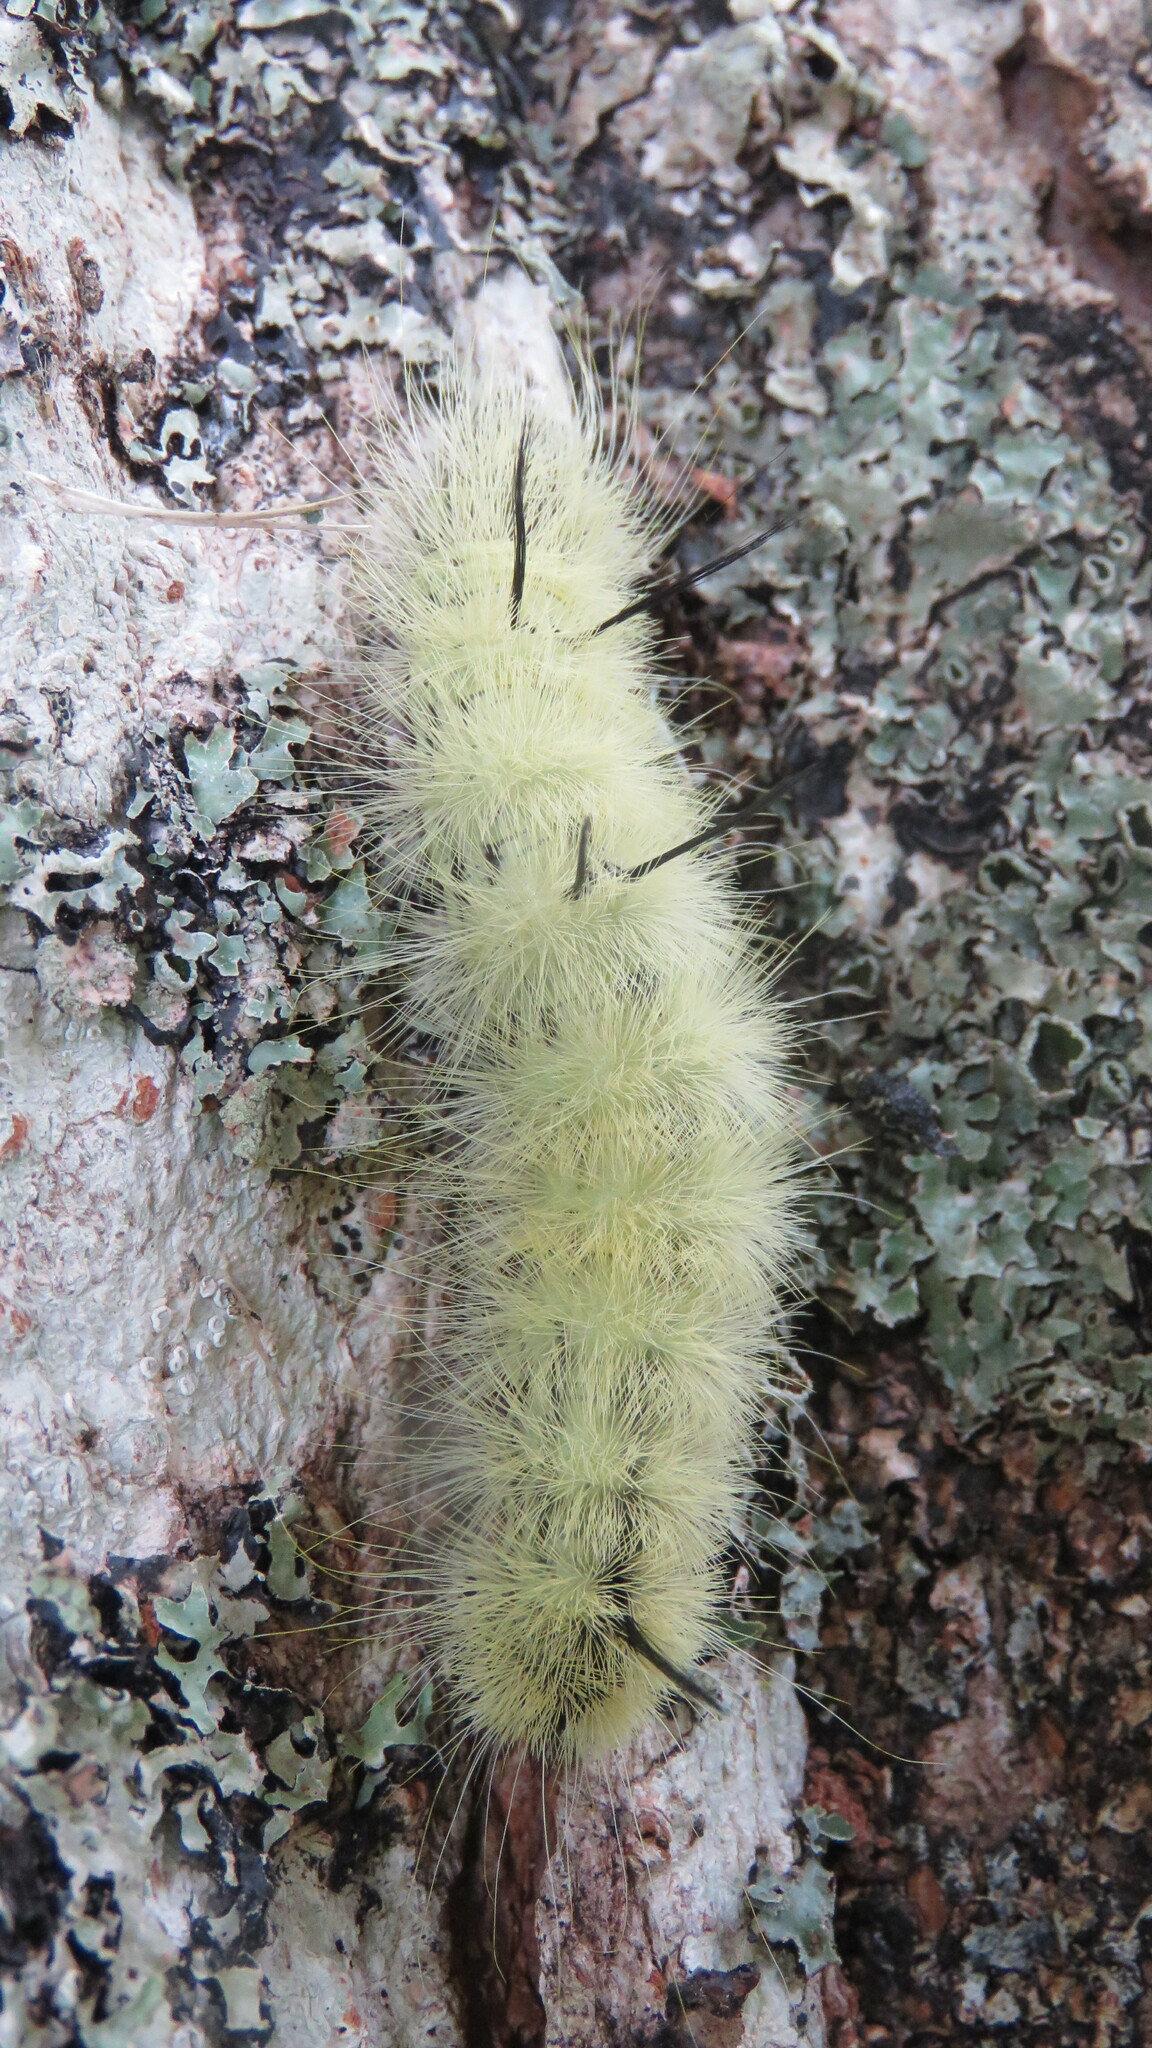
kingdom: Animalia
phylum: Arthropoda
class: Insecta
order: Lepidoptera
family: Noctuidae
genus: Acronicta
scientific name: Acronicta americana
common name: American dagger
